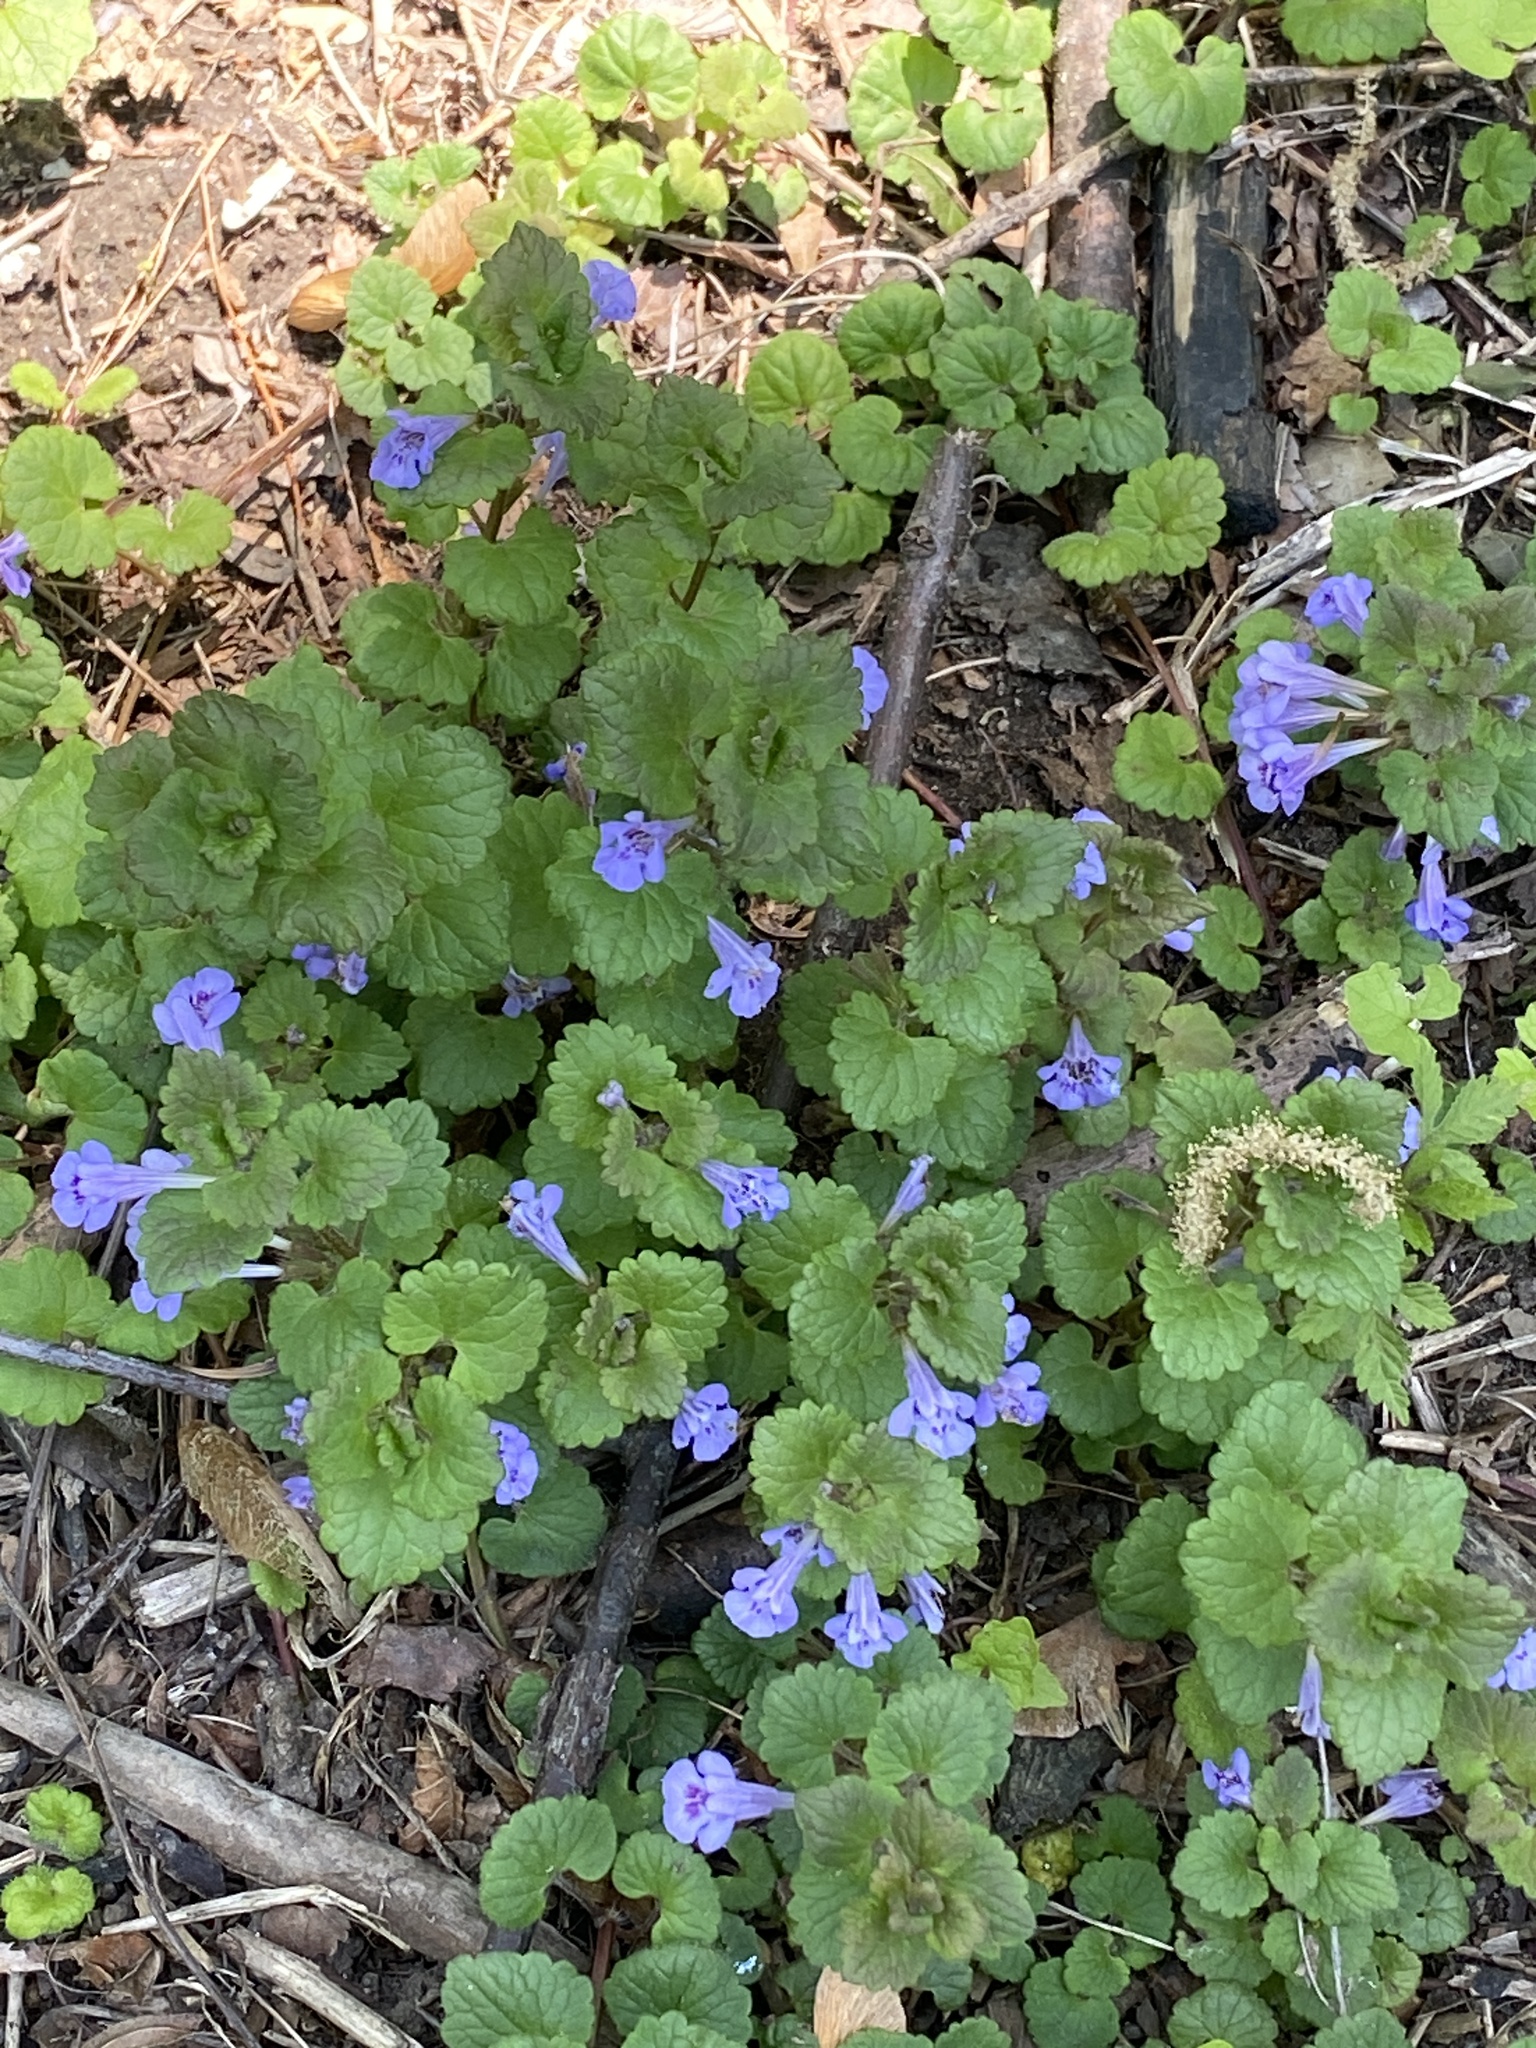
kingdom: Plantae
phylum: Tracheophyta
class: Magnoliopsida
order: Lamiales
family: Lamiaceae
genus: Glechoma
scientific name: Glechoma hederacea
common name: Ground ivy
